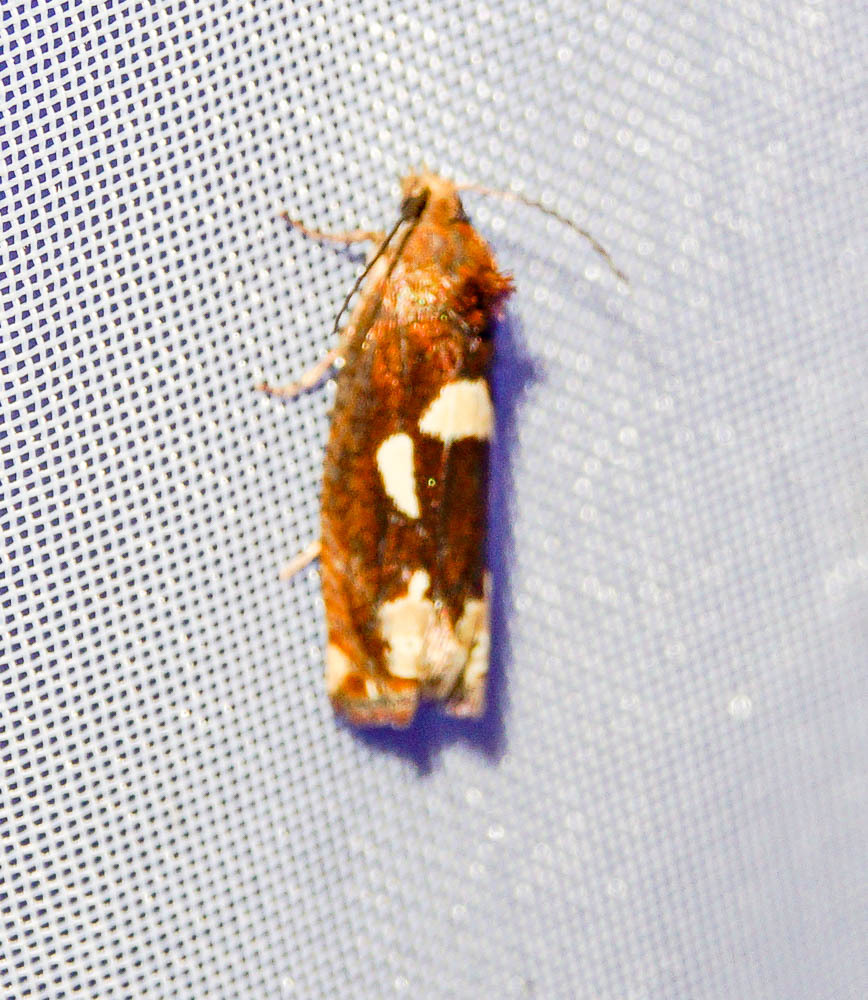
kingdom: Animalia
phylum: Arthropoda
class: Insecta
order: Lepidoptera
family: Tortricidae
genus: Epiblema
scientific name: Epiblema foenella
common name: White-foot bell
